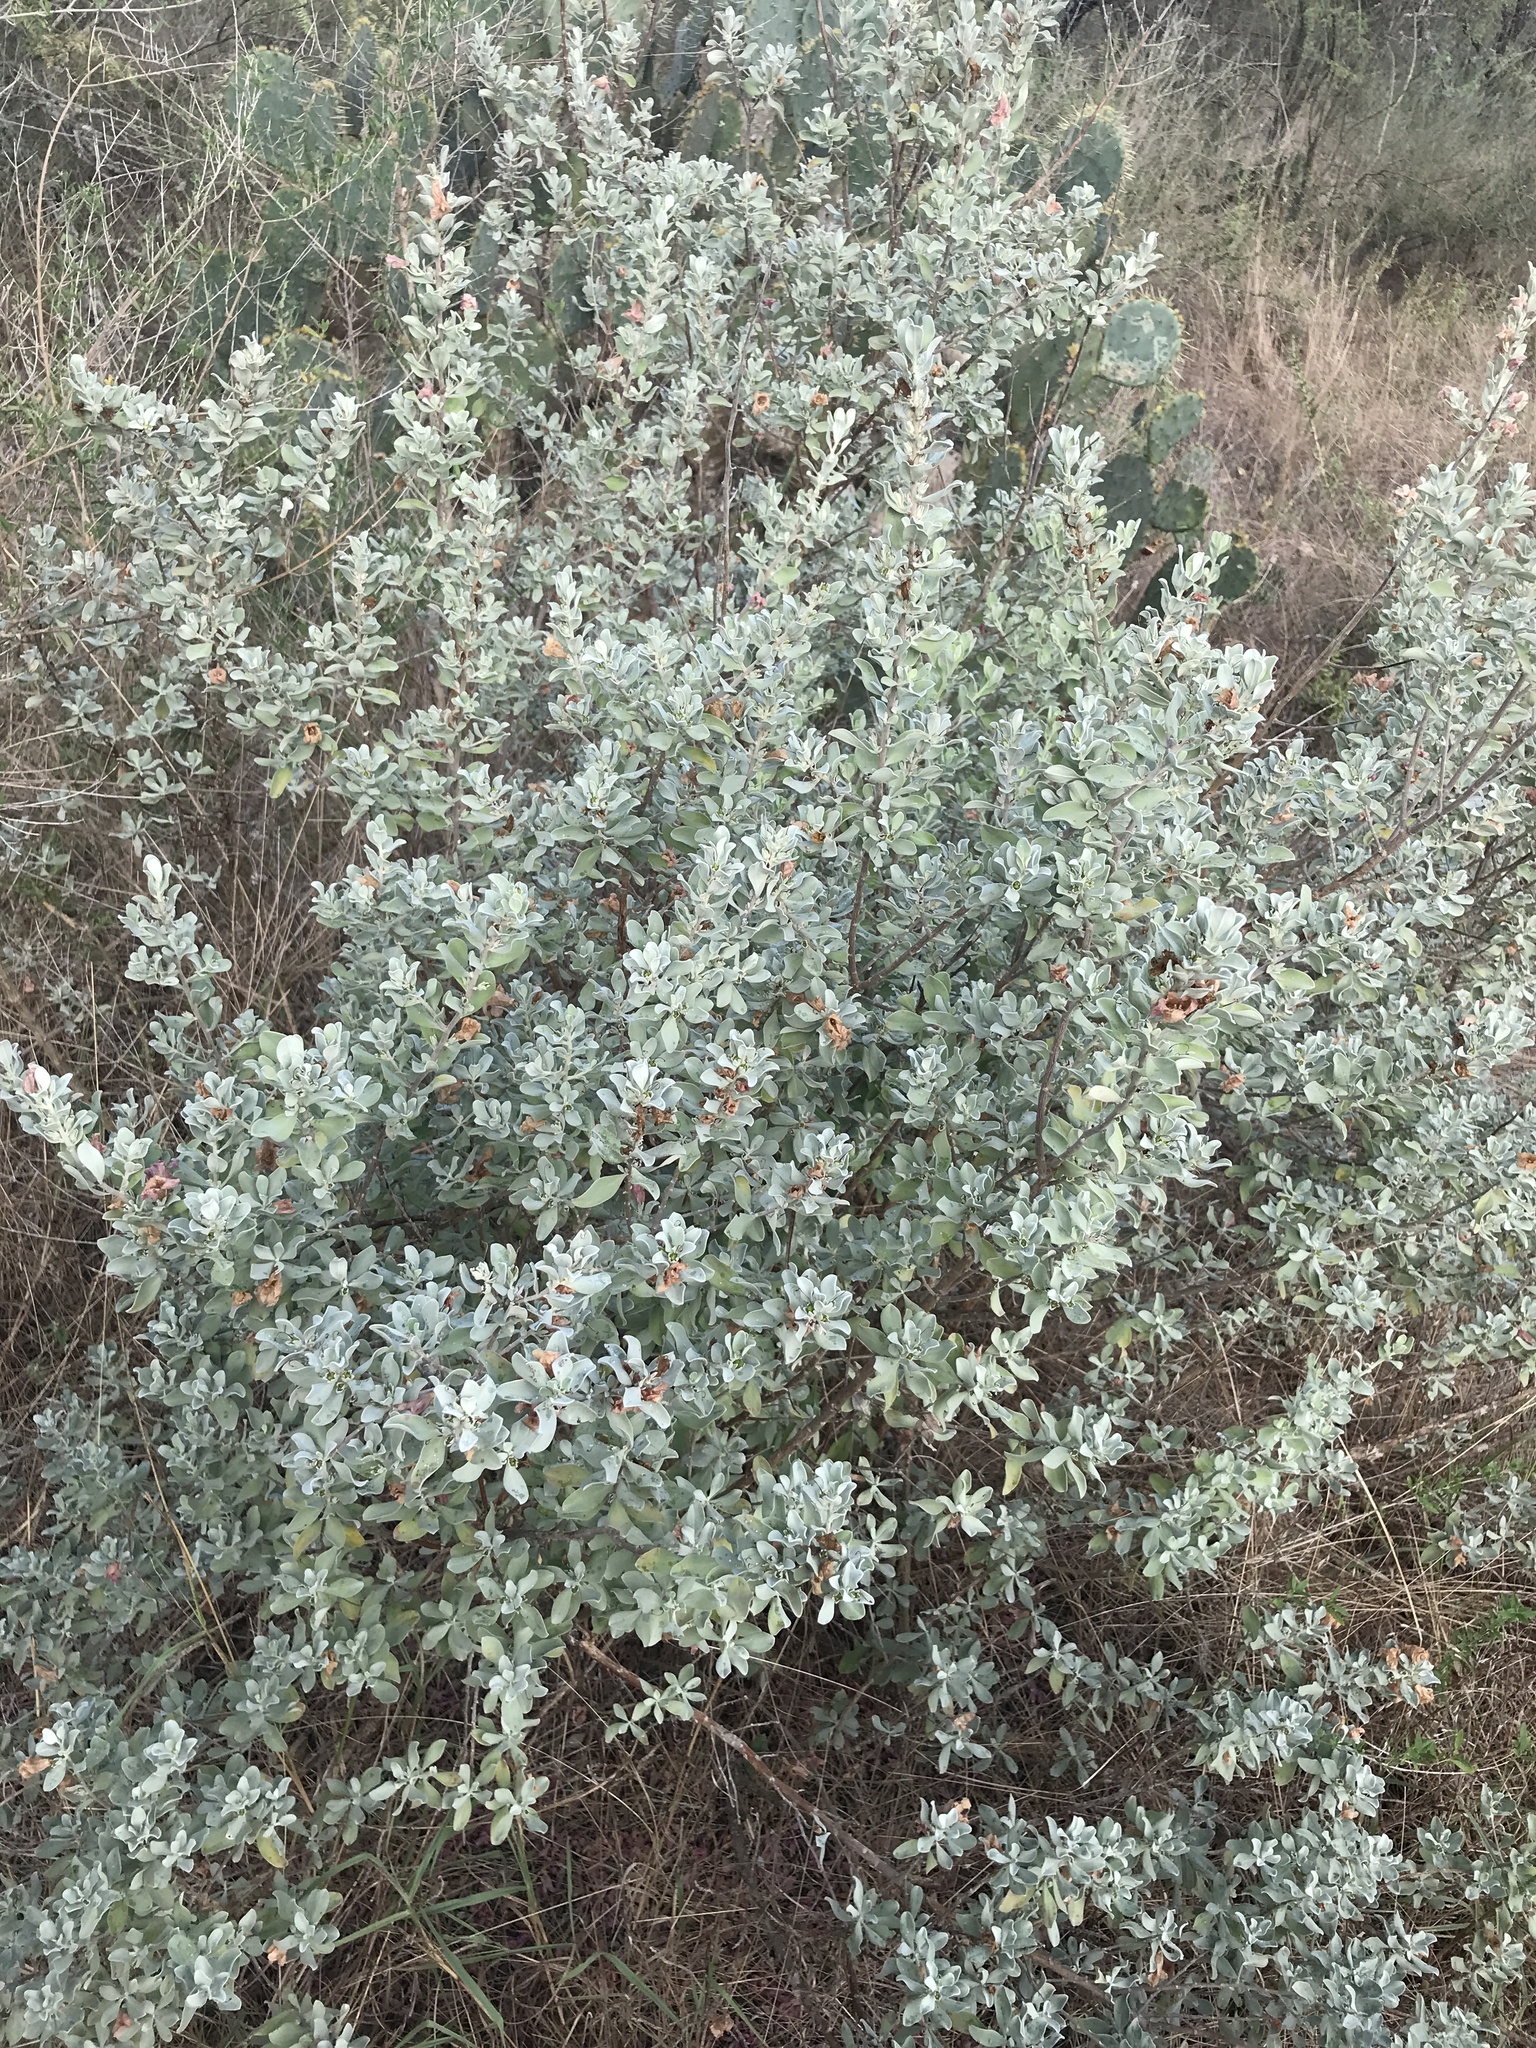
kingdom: Plantae
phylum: Tracheophyta
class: Magnoliopsida
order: Lamiales
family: Scrophulariaceae
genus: Leucophyllum
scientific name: Leucophyllum frutescens
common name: Texas silverleaf
